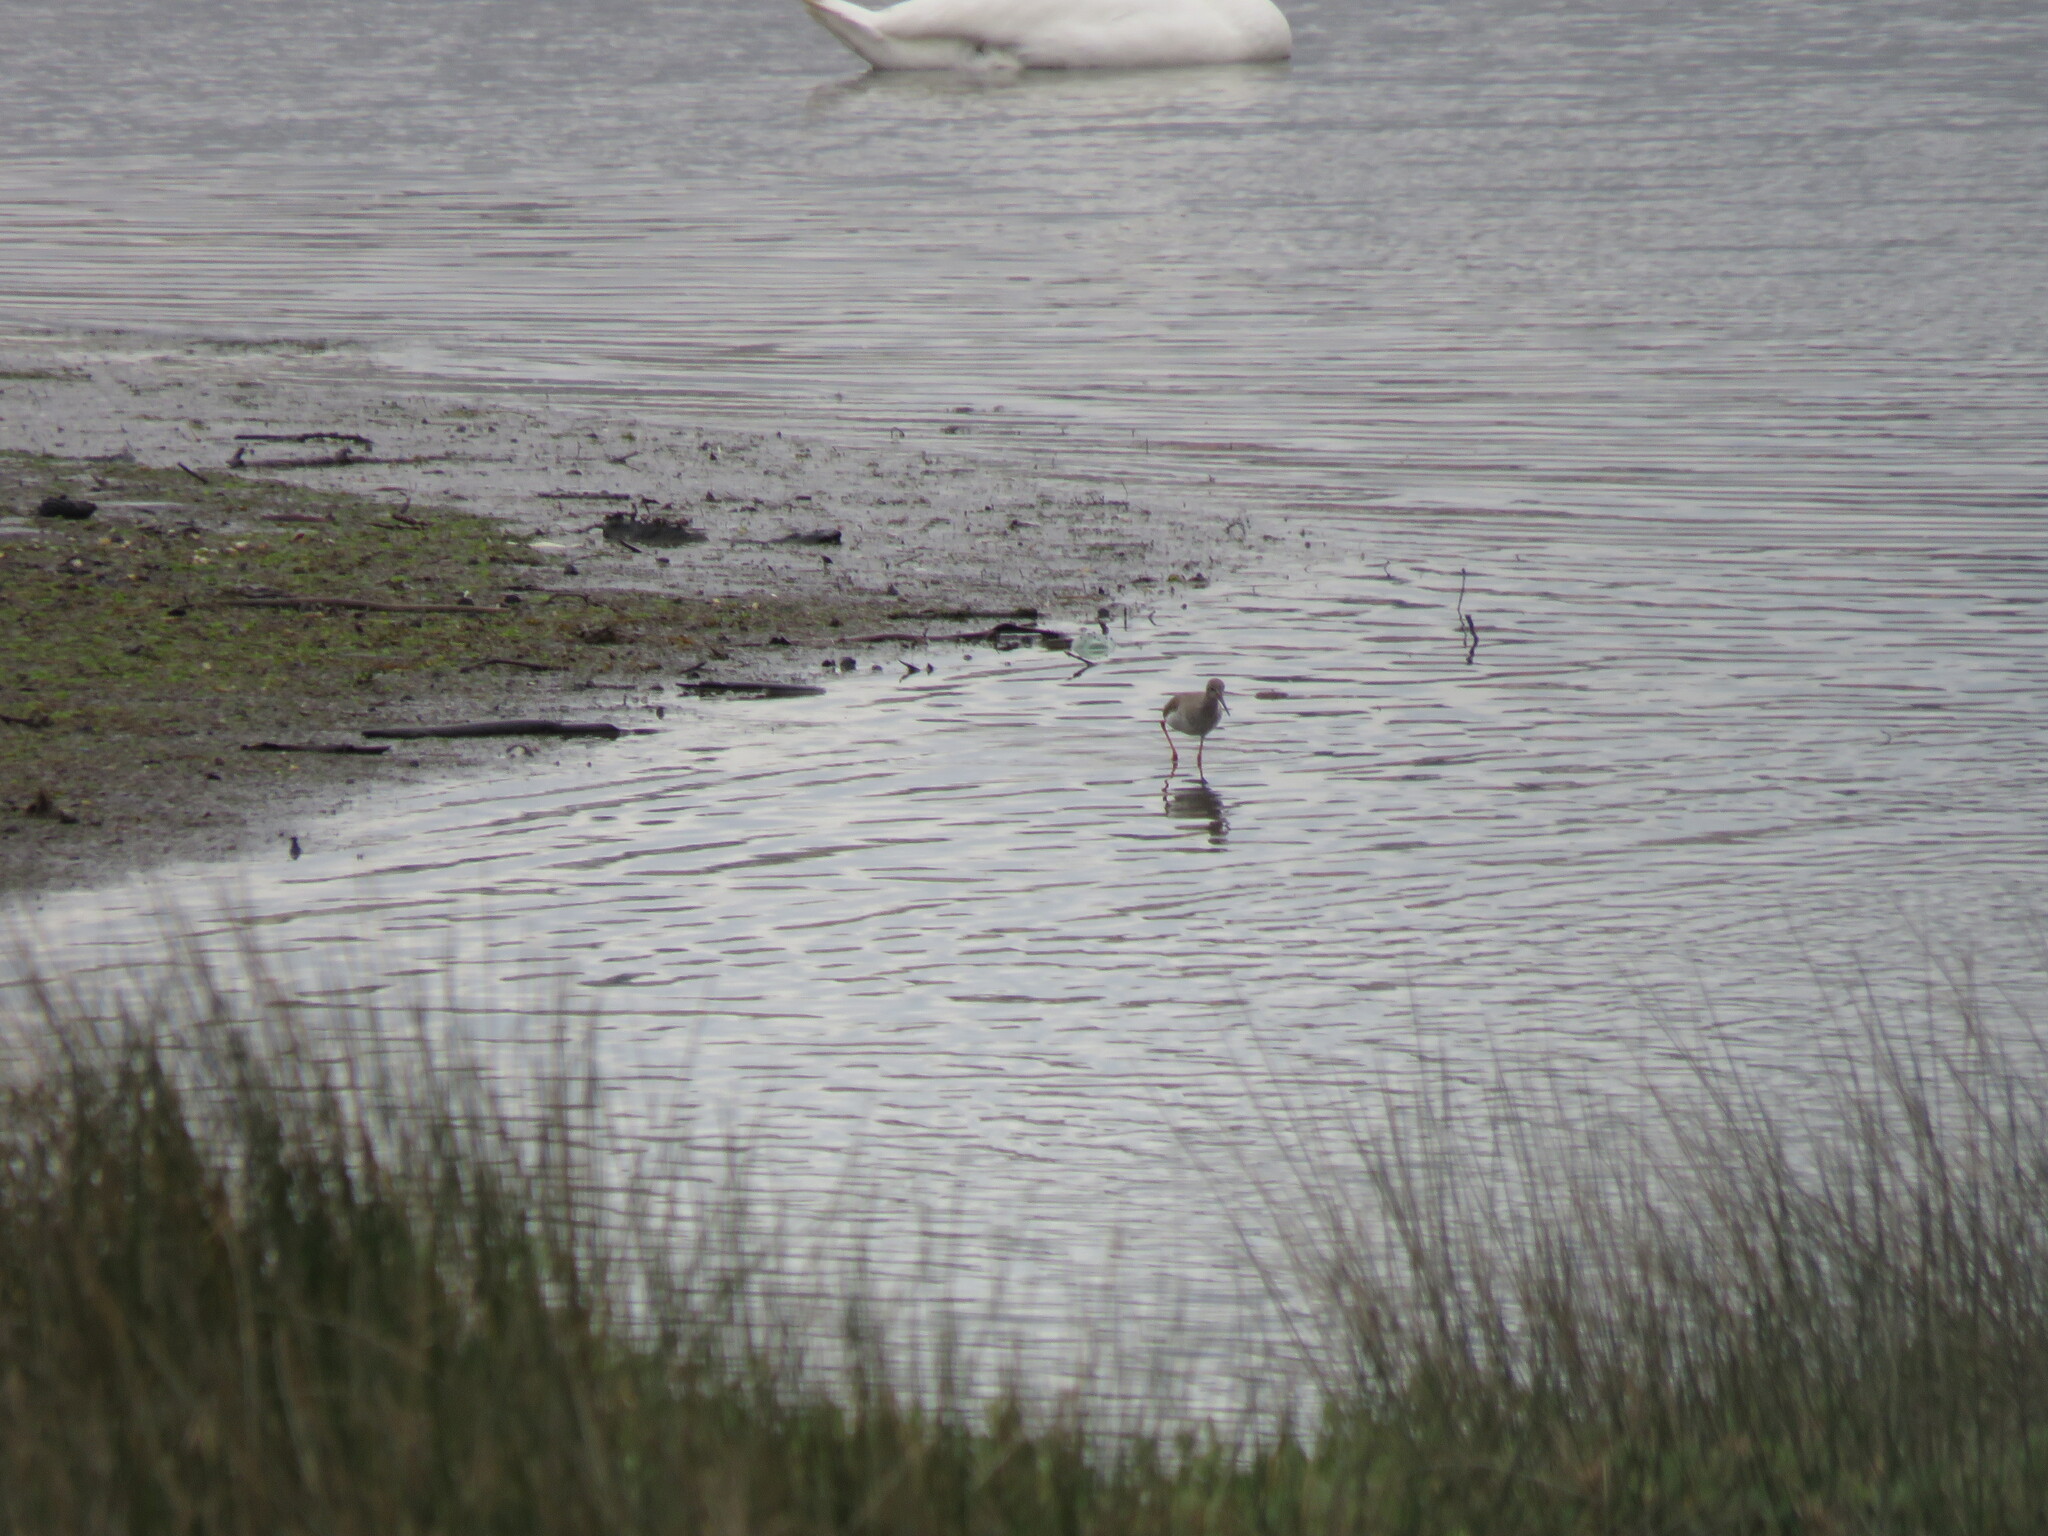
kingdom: Animalia
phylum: Chordata
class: Aves
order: Charadriiformes
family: Scolopacidae
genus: Tringa
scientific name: Tringa totanus
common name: Common redshank
